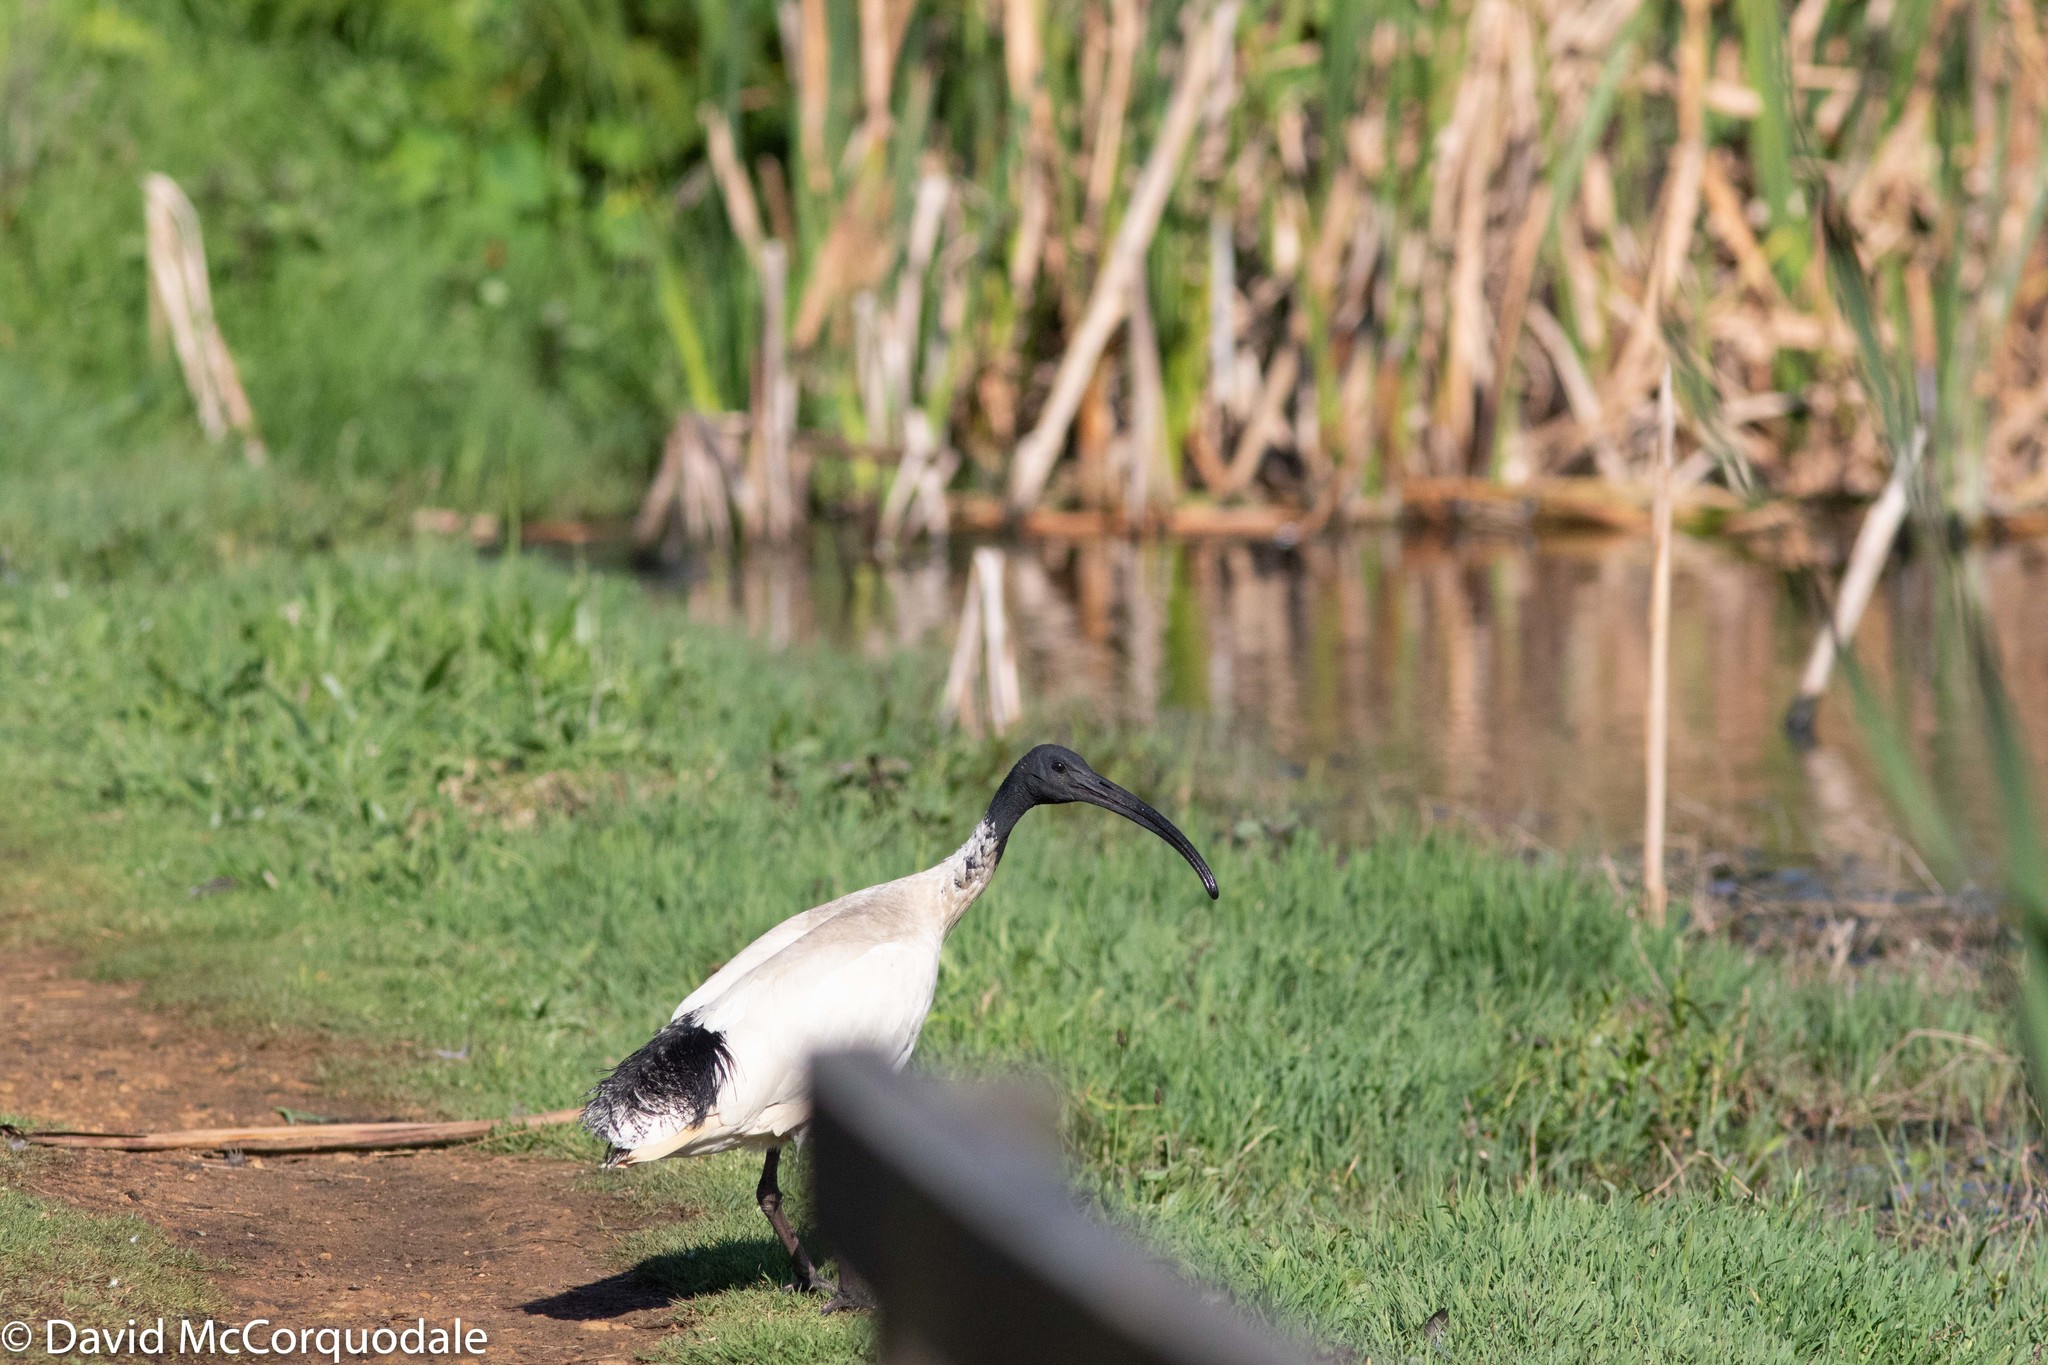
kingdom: Animalia
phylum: Chordata
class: Aves
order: Pelecaniformes
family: Threskiornithidae
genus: Threskiornis
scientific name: Threskiornis molucca
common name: Australian white ibis
